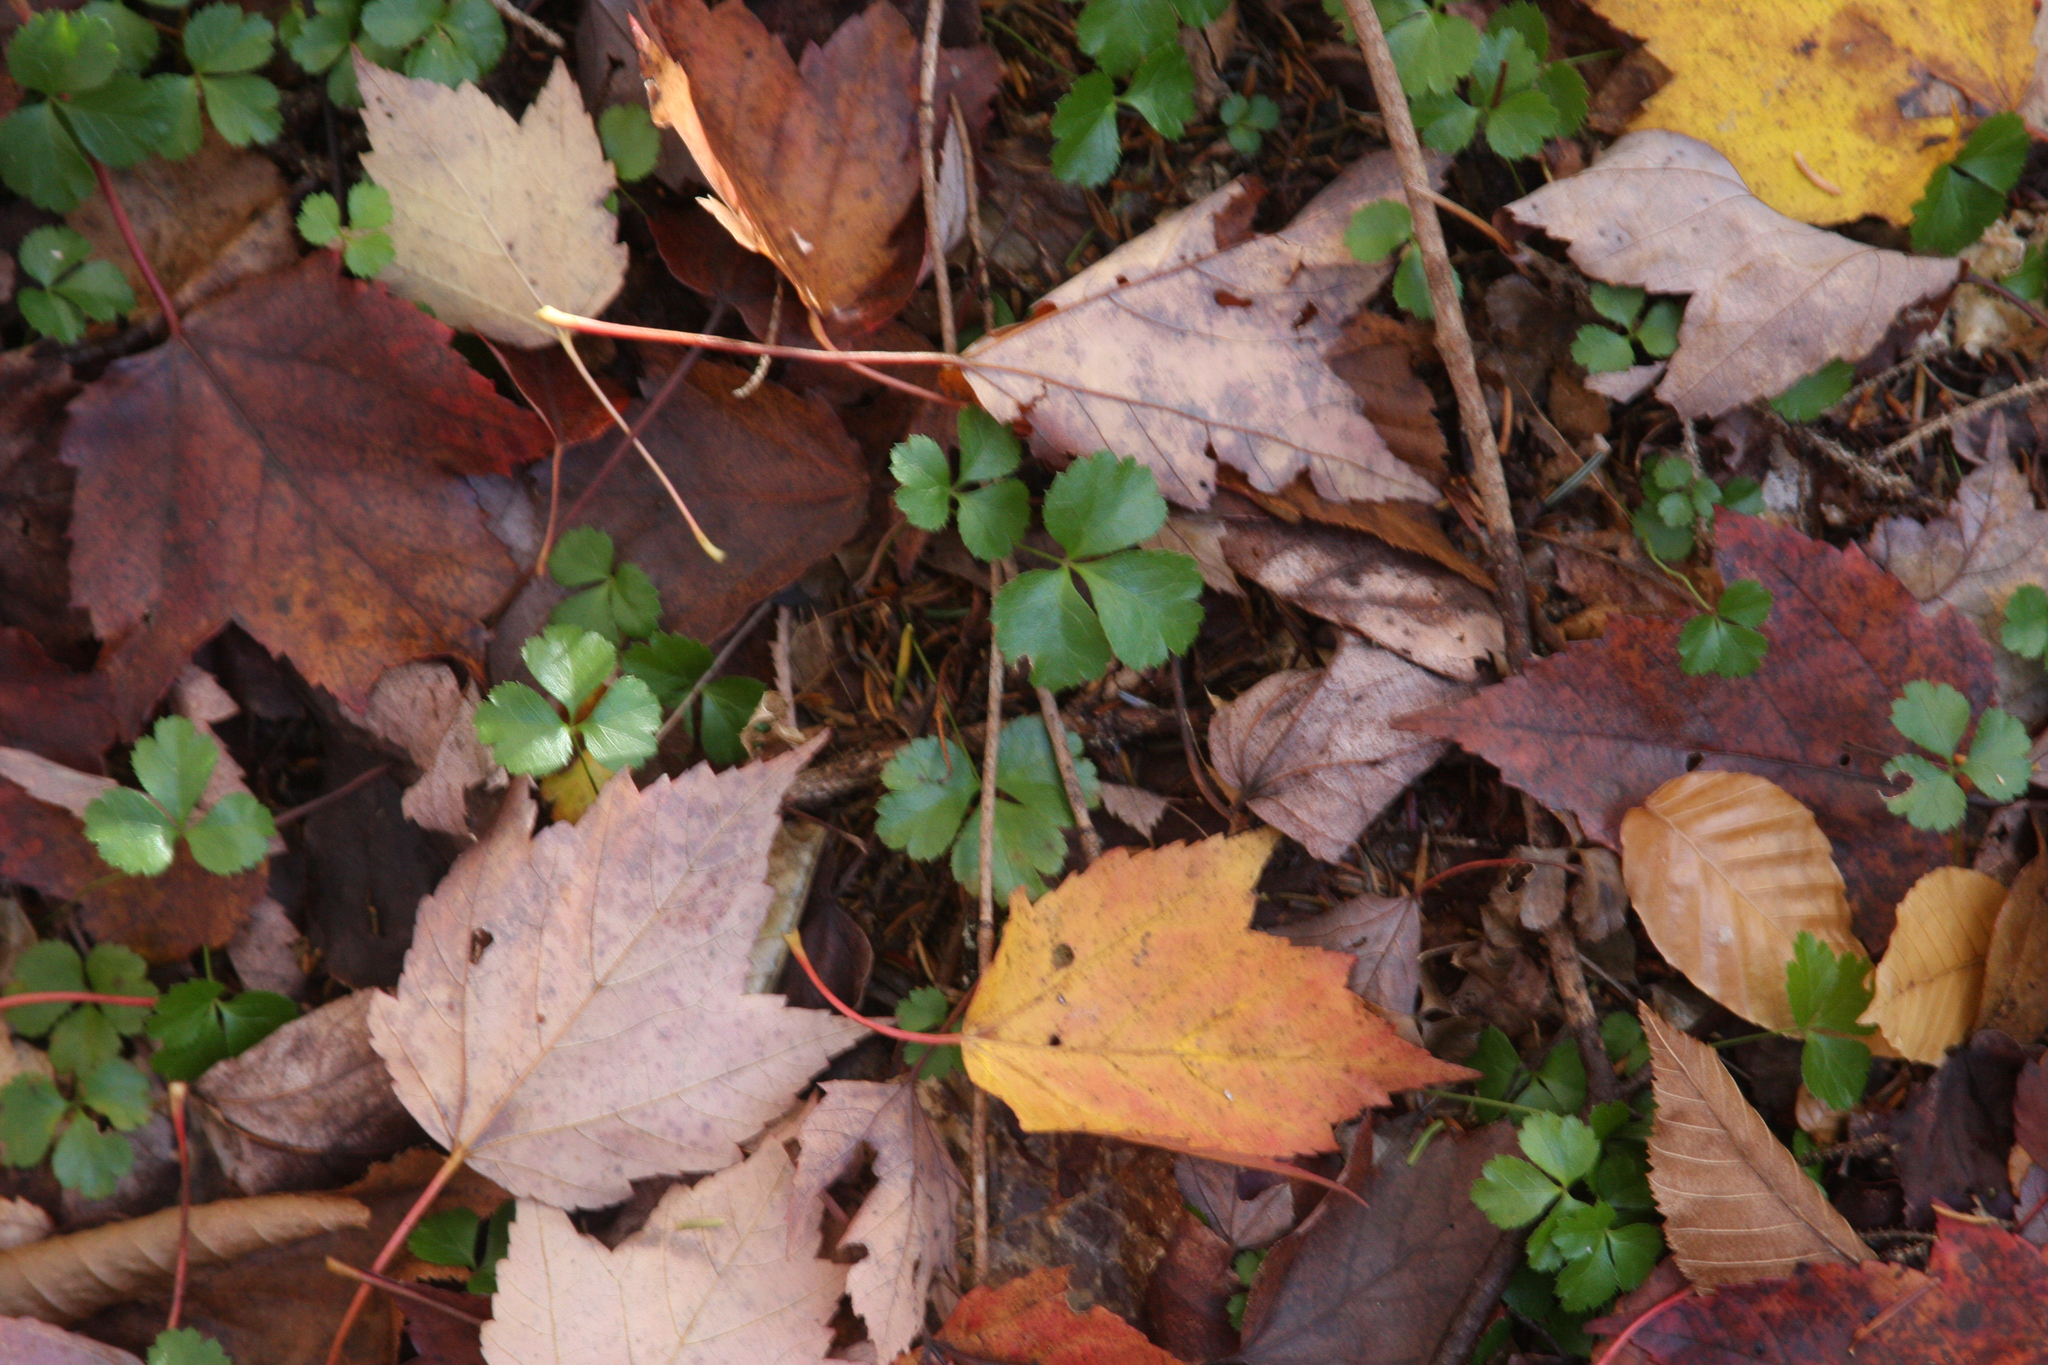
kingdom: Plantae
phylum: Tracheophyta
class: Magnoliopsida
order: Sapindales
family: Sapindaceae
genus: Acer
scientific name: Acer rubrum
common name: Red maple
